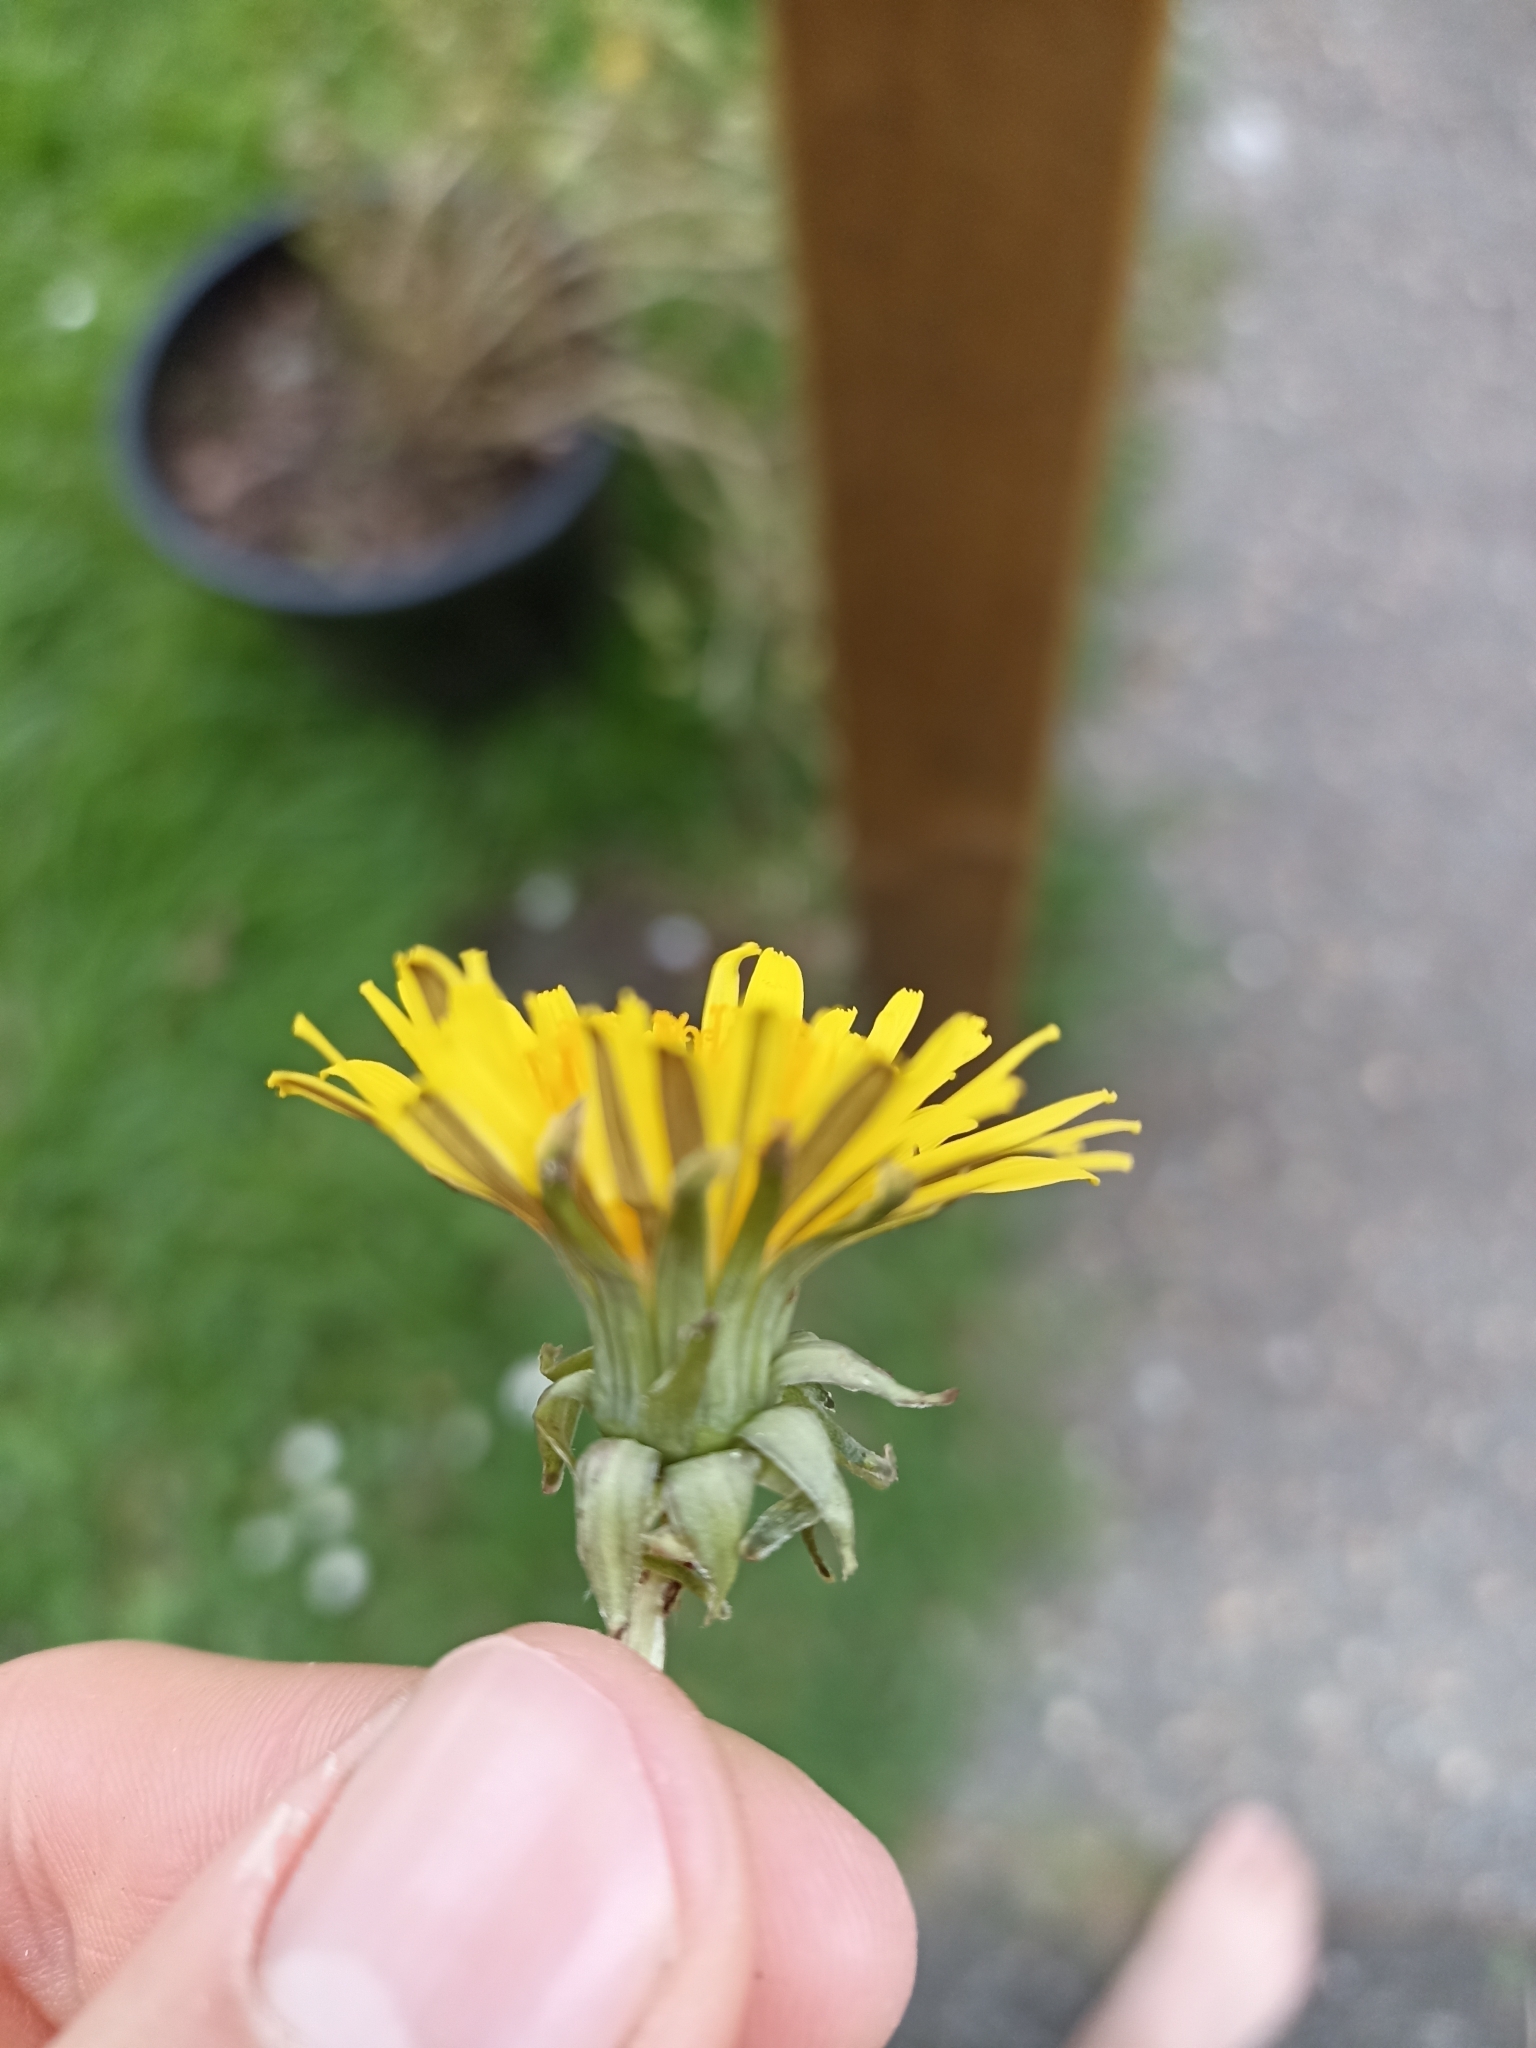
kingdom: Plantae
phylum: Tracheophyta
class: Magnoliopsida
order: Asterales
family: Asteraceae
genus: Taraxacum
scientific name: Taraxacum officinale
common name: Common dandelion
